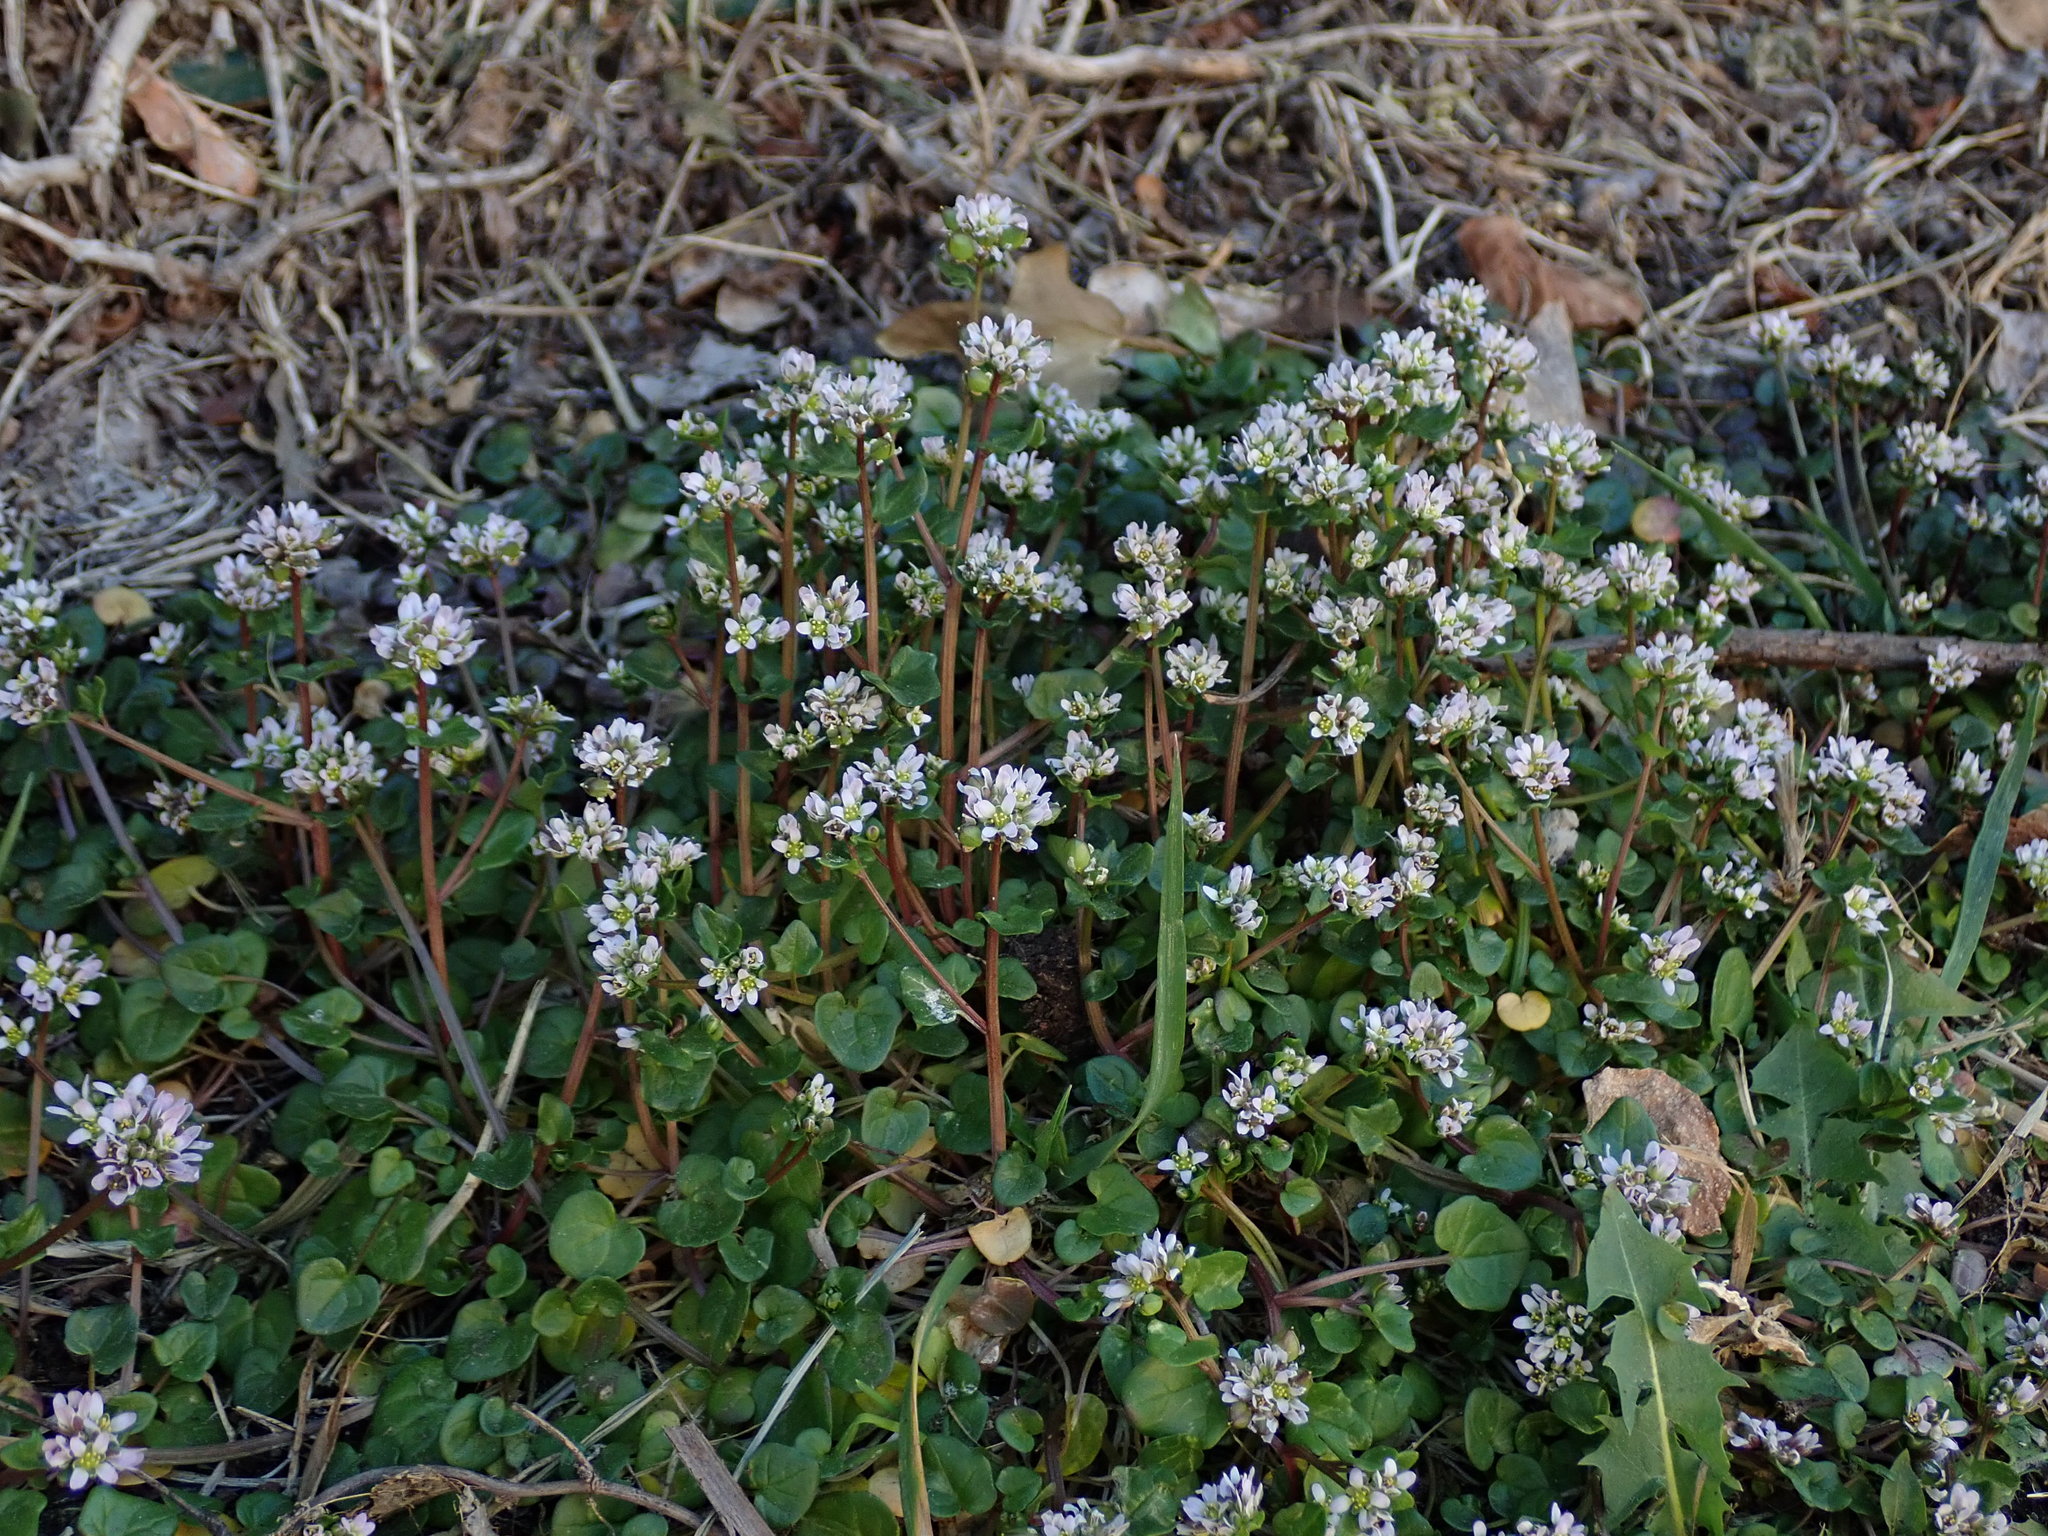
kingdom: Plantae
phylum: Tracheophyta
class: Magnoliopsida
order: Brassicales
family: Brassicaceae
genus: Cochlearia
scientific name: Cochlearia danica
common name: Early scurvygrass
